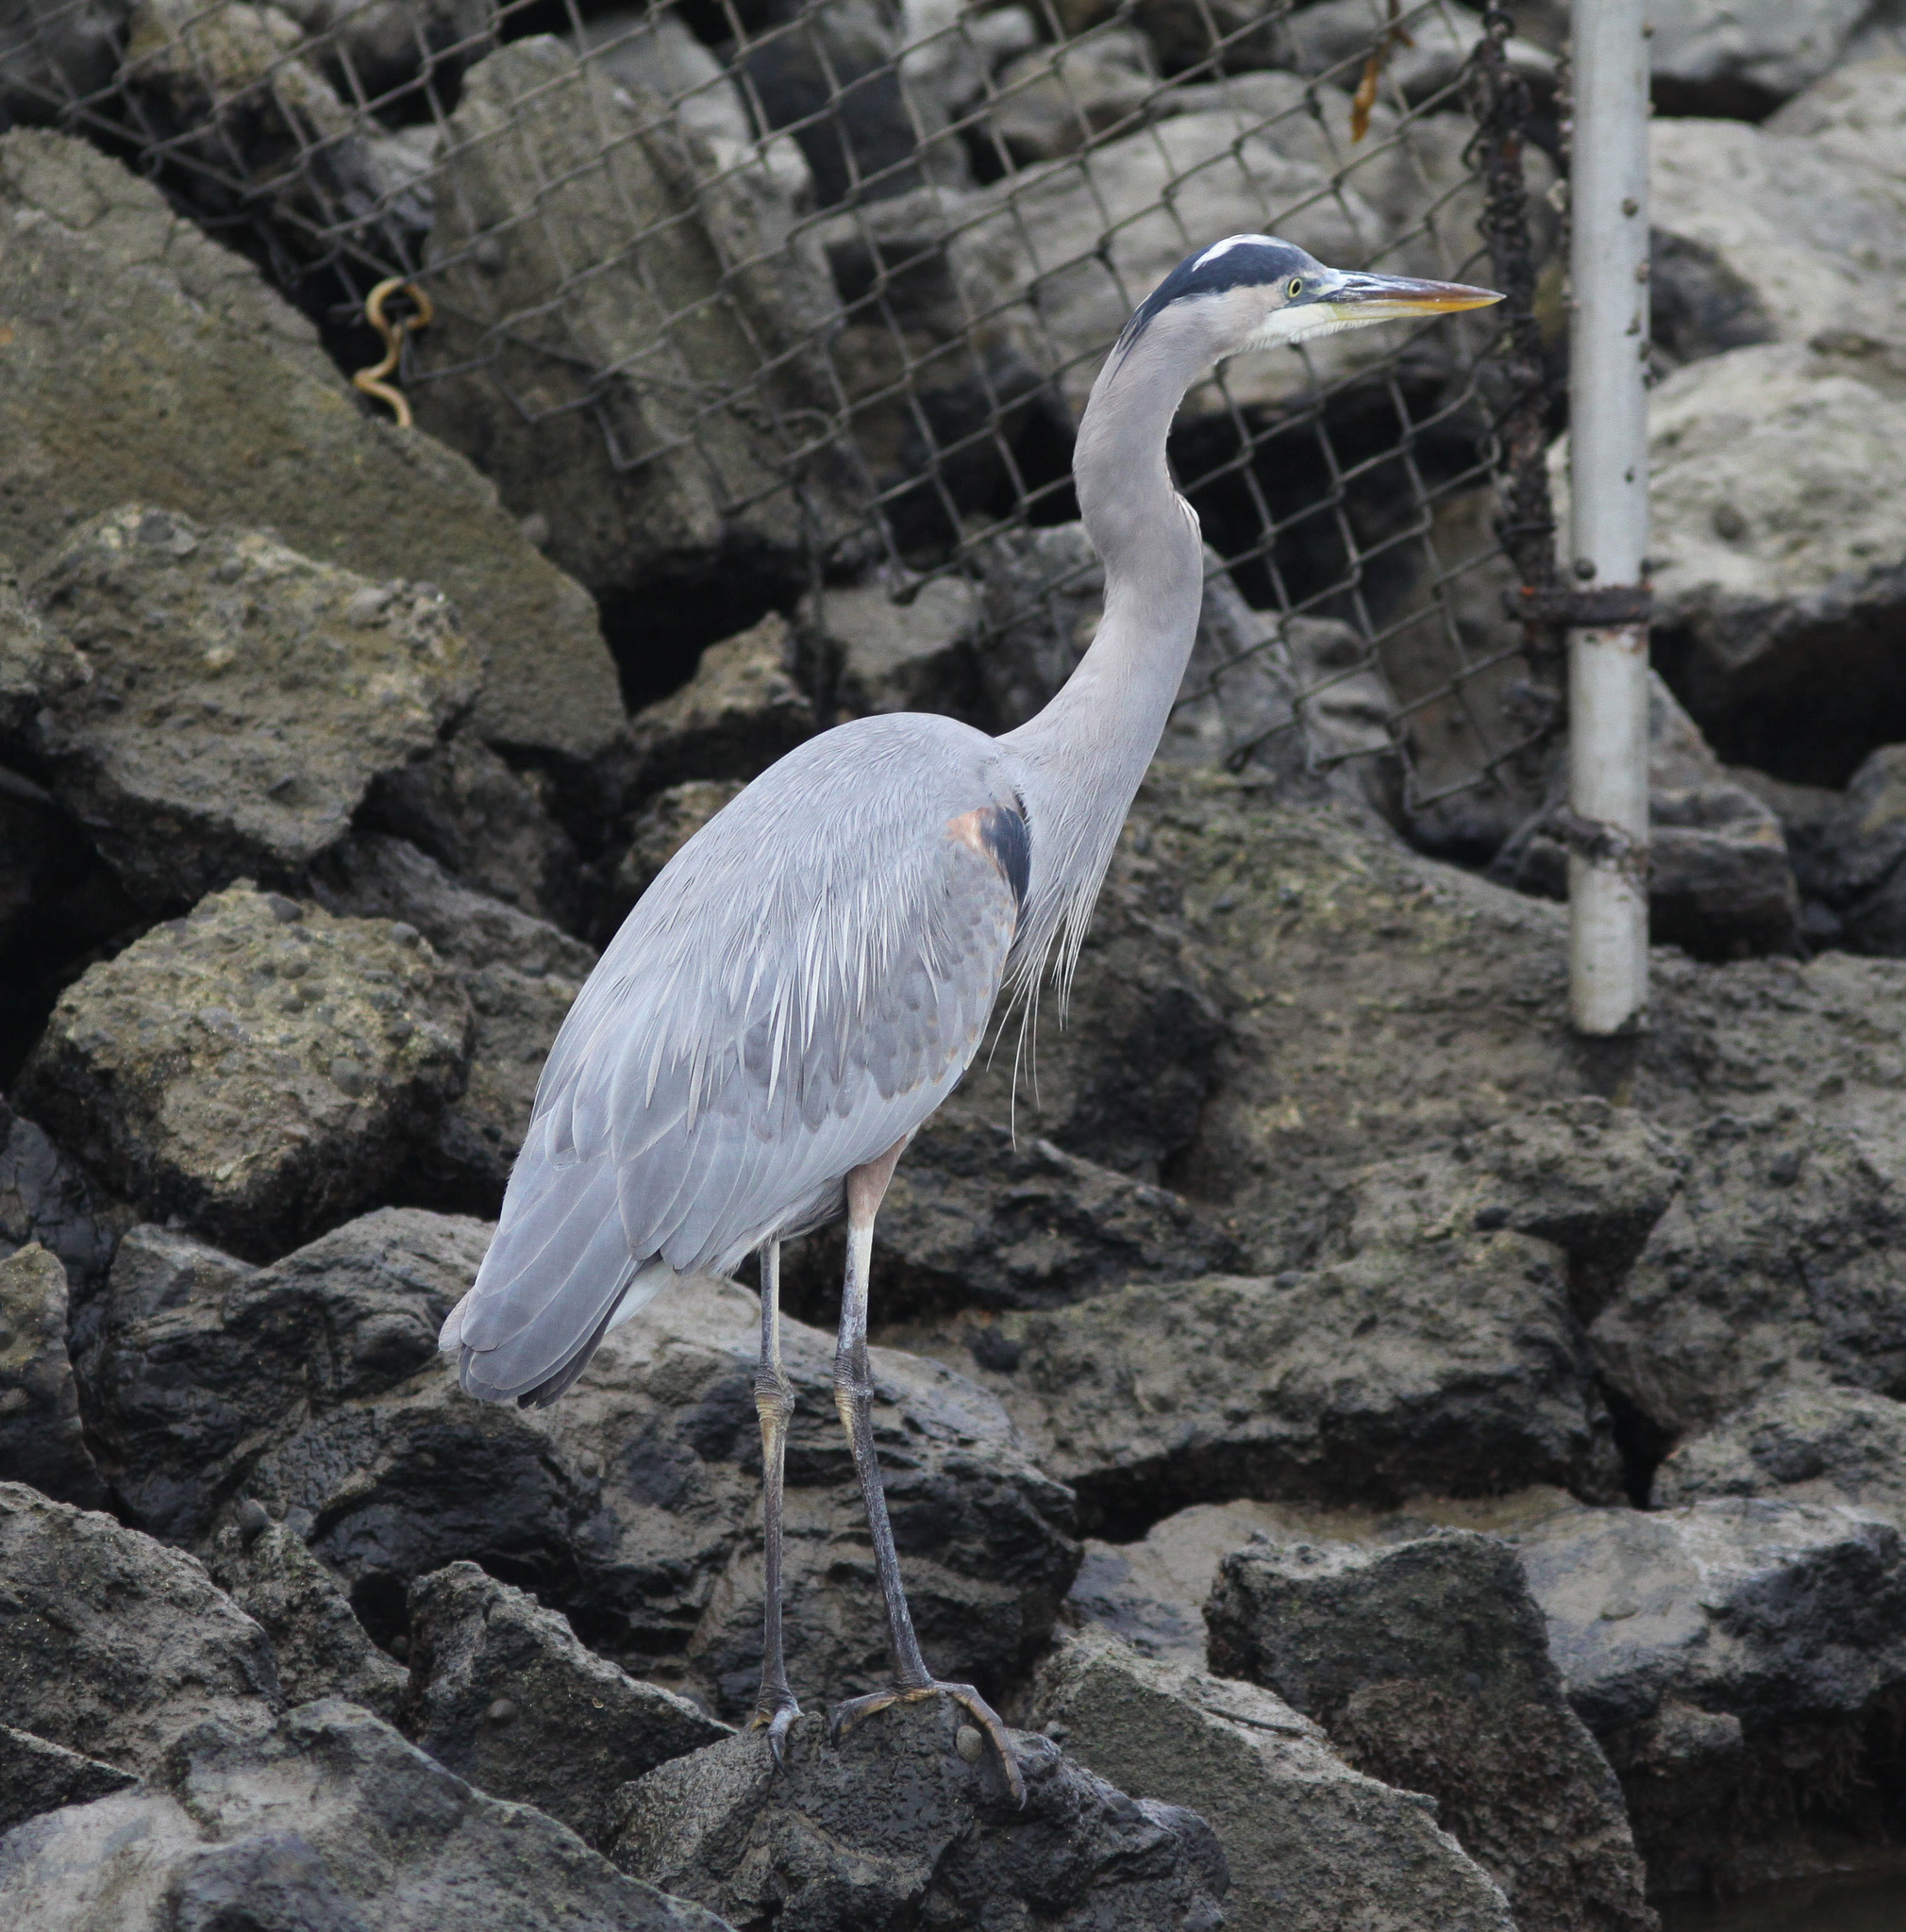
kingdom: Animalia
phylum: Chordata
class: Aves
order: Pelecaniformes
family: Ardeidae
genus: Ardea
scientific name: Ardea herodias
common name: Great blue heron
